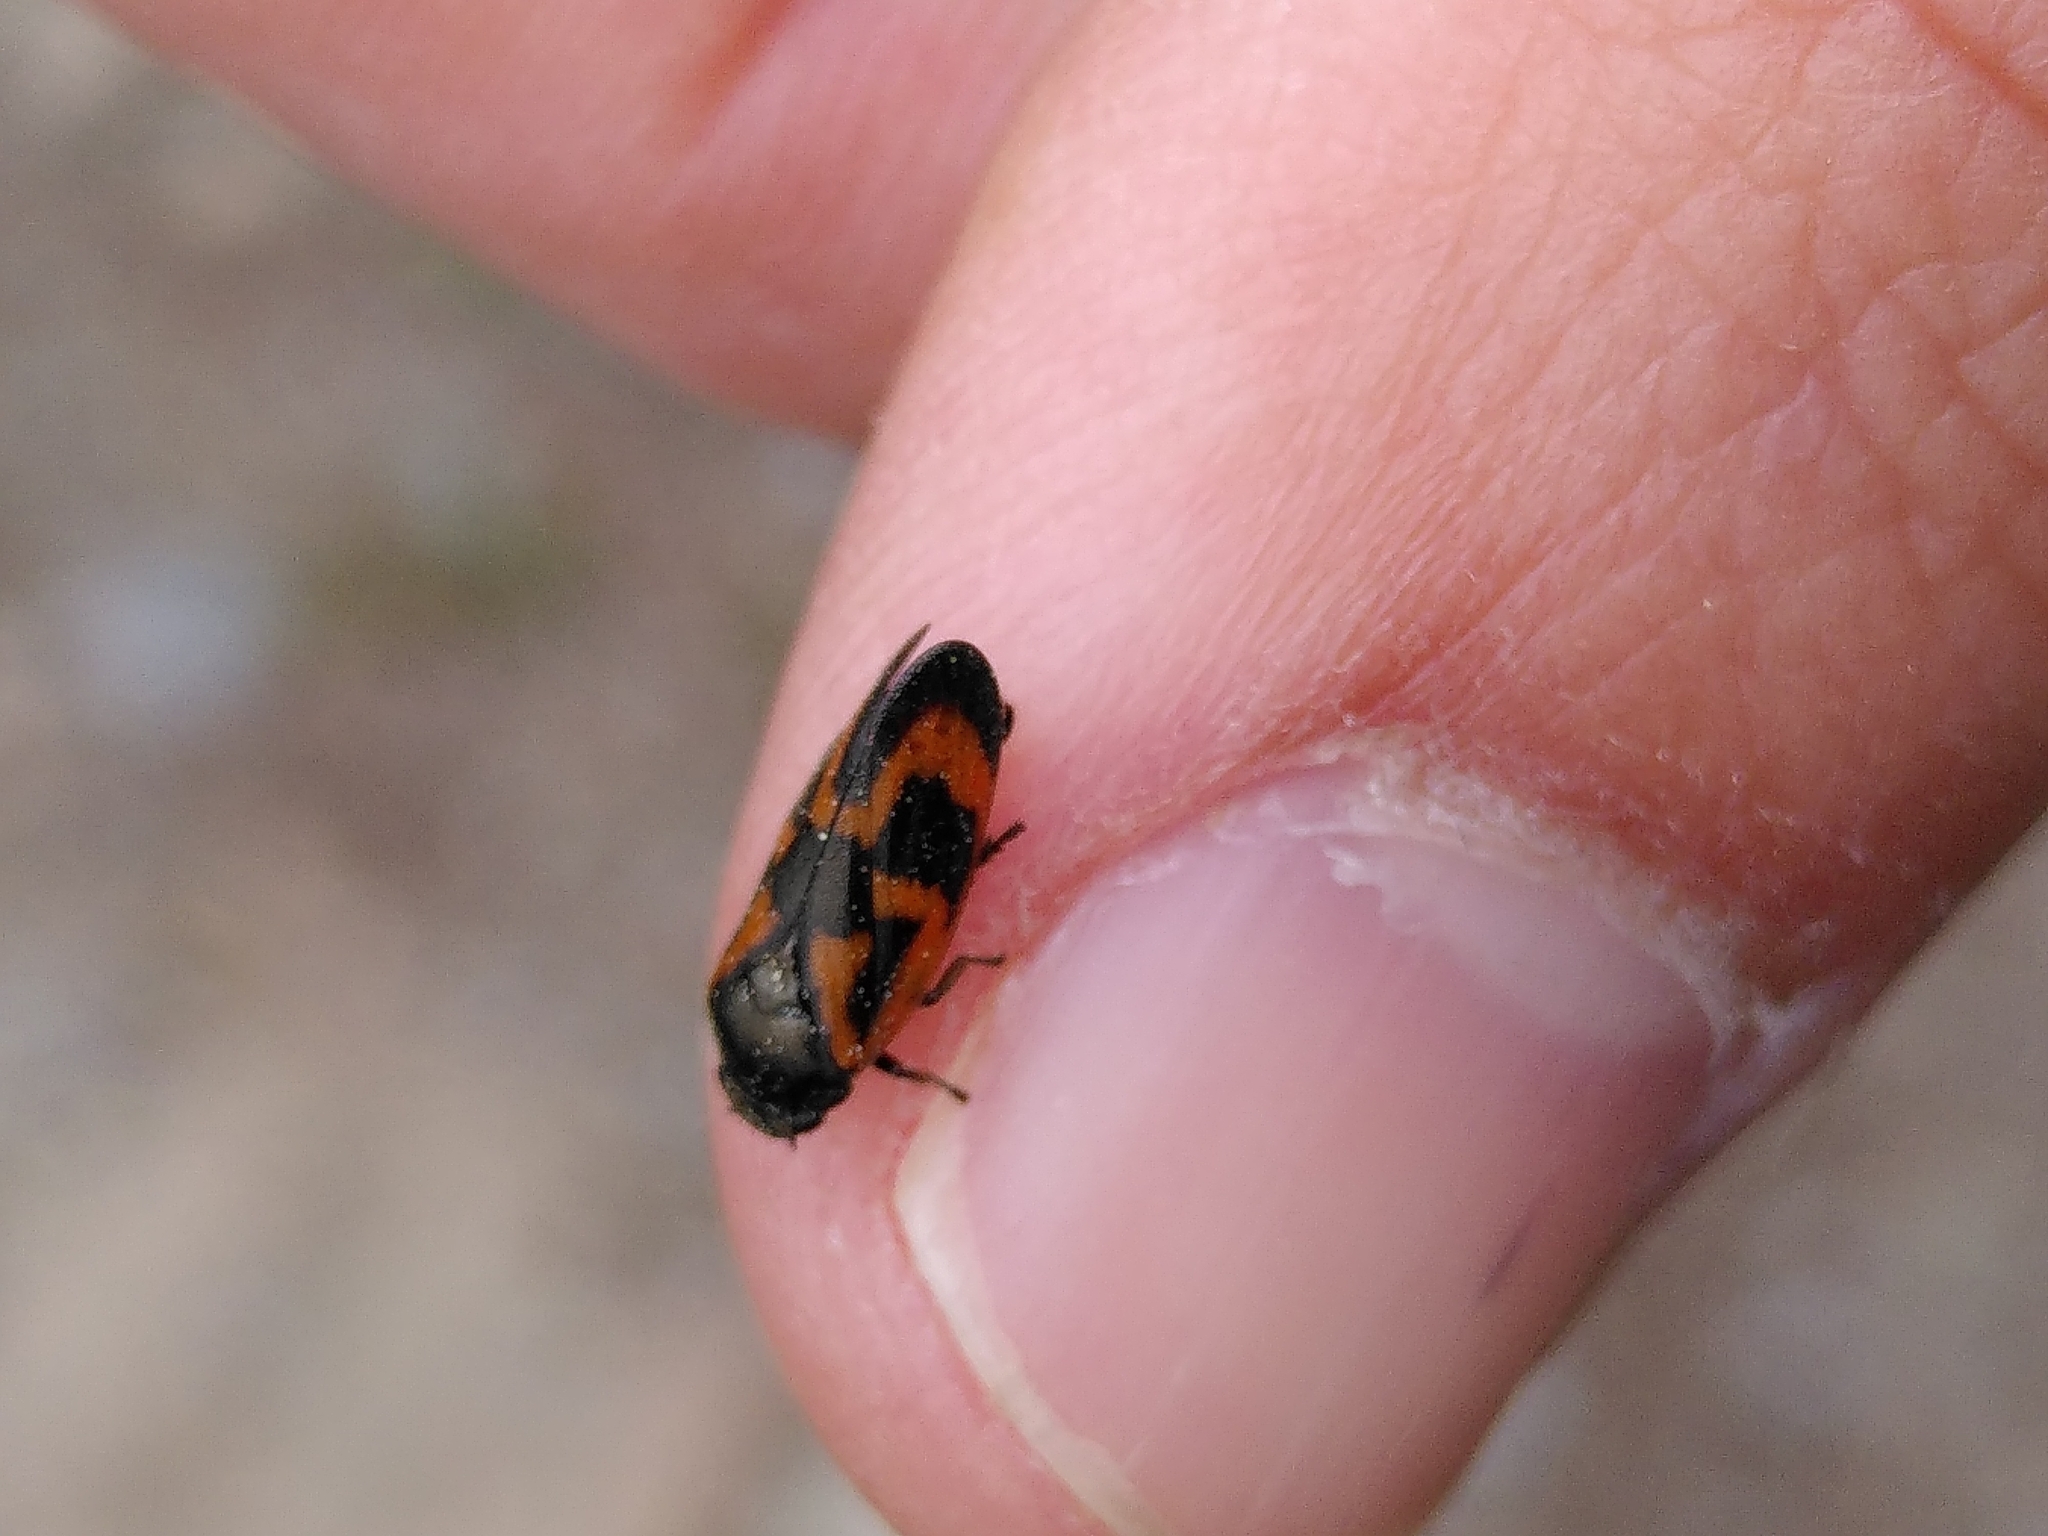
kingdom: Animalia
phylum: Arthropoda
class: Insecta
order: Hemiptera
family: Cercopidae
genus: Haematoloma
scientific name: Haematoloma dorsata
